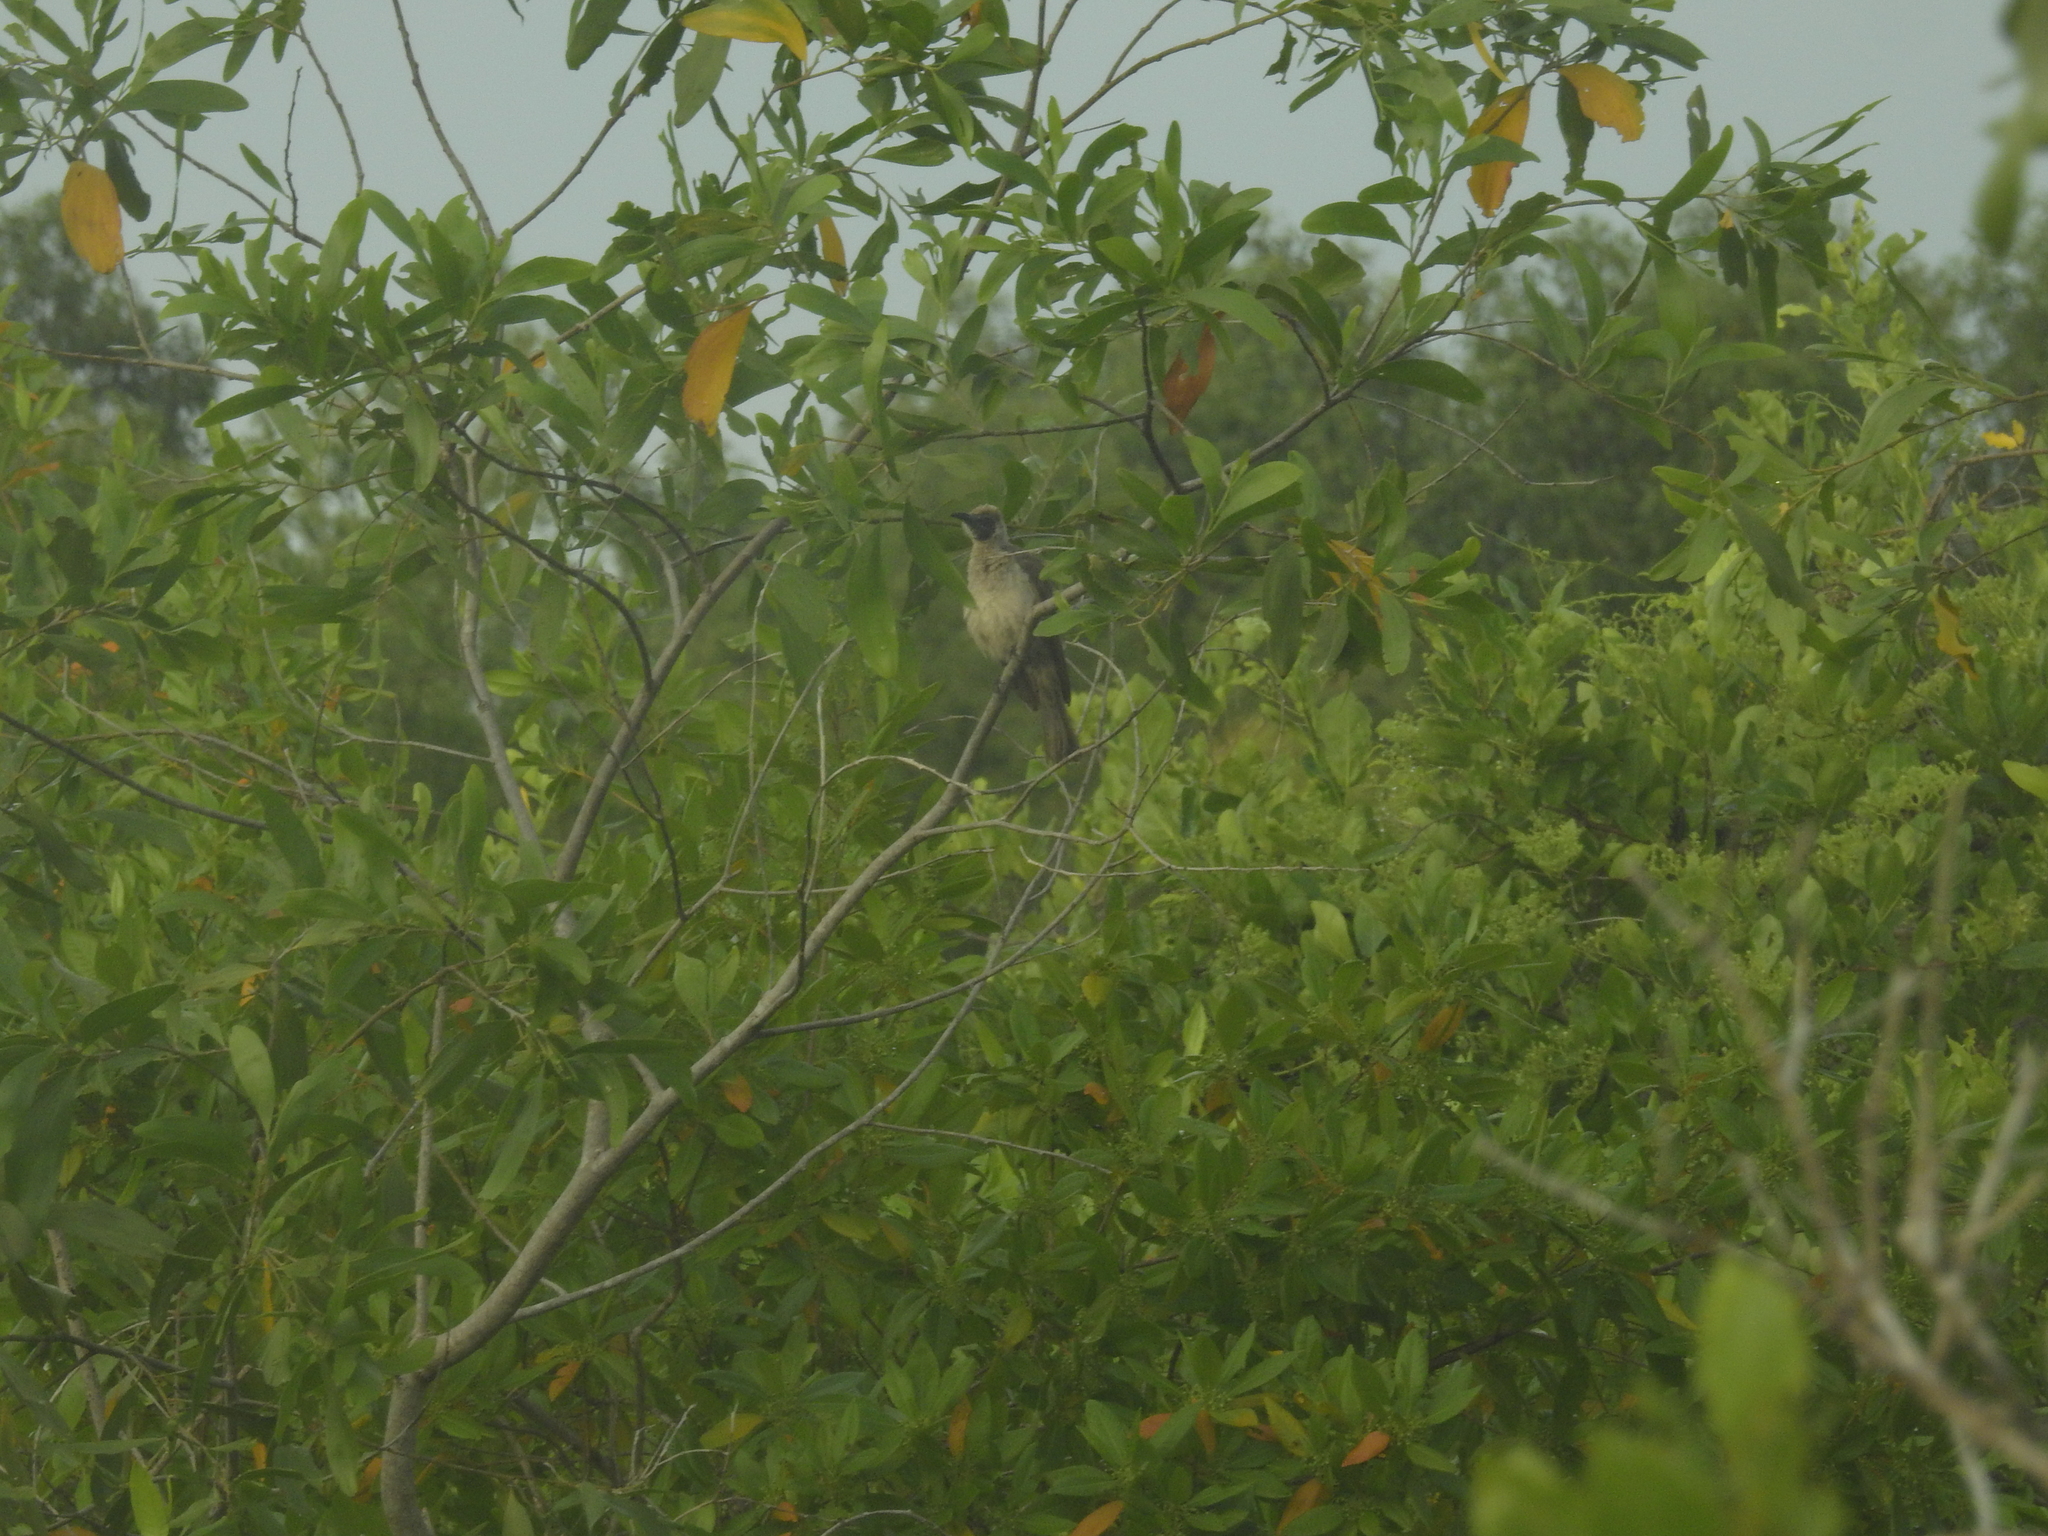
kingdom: Animalia
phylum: Chordata
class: Aves
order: Passeriformes
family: Meliphagidae
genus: Philemon
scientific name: Philemon citreogularis
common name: Little friarbird
